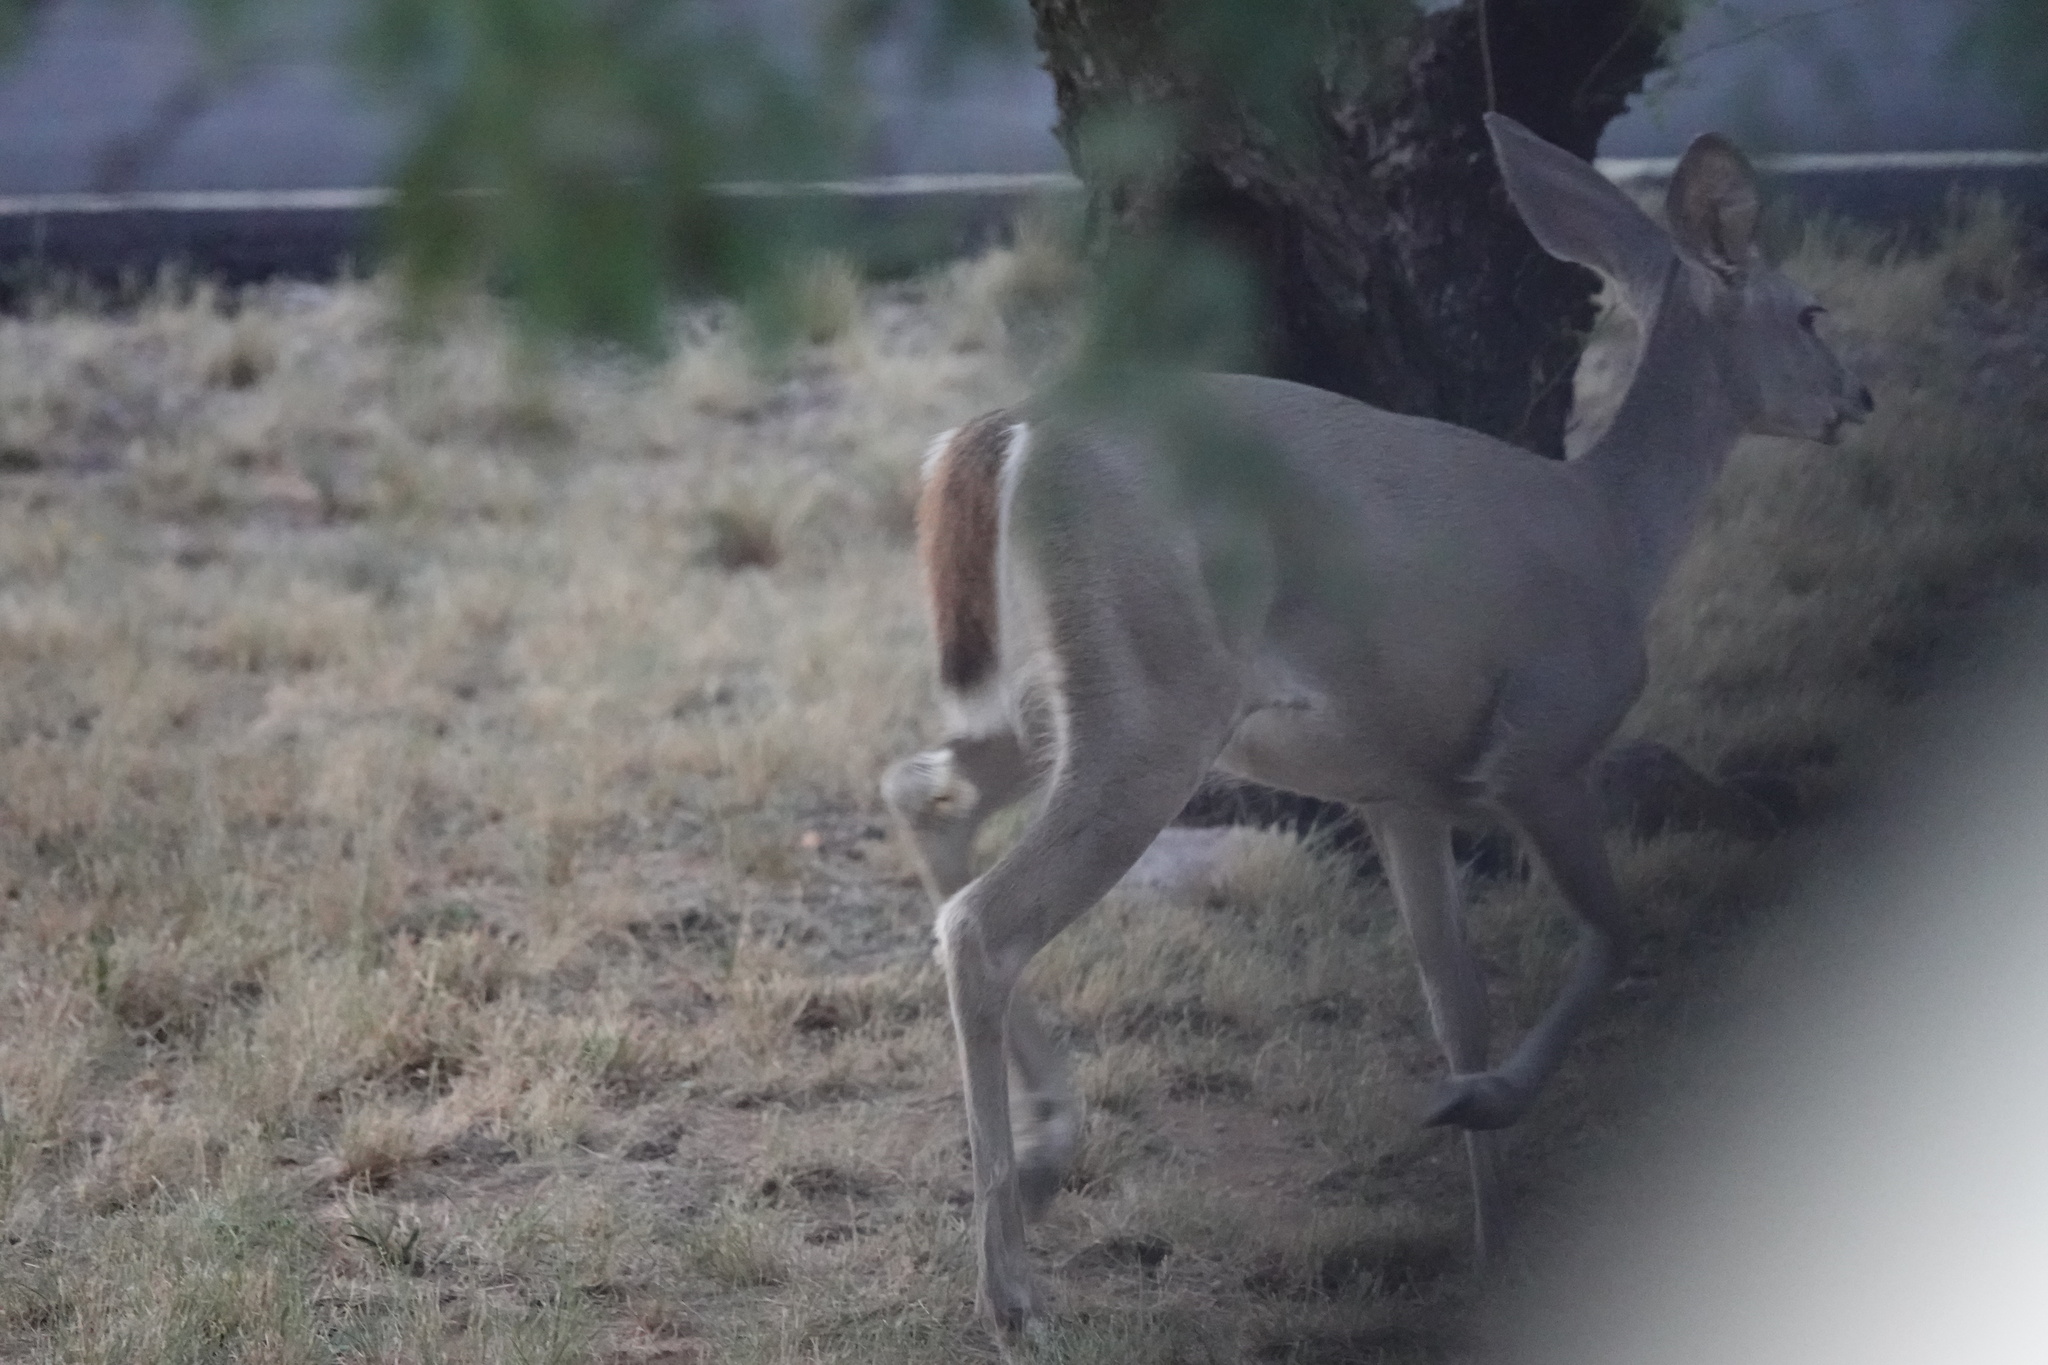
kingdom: Animalia
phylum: Chordata
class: Mammalia
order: Artiodactyla
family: Cervidae
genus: Odocoileus
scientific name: Odocoileus virginianus
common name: White-tailed deer
